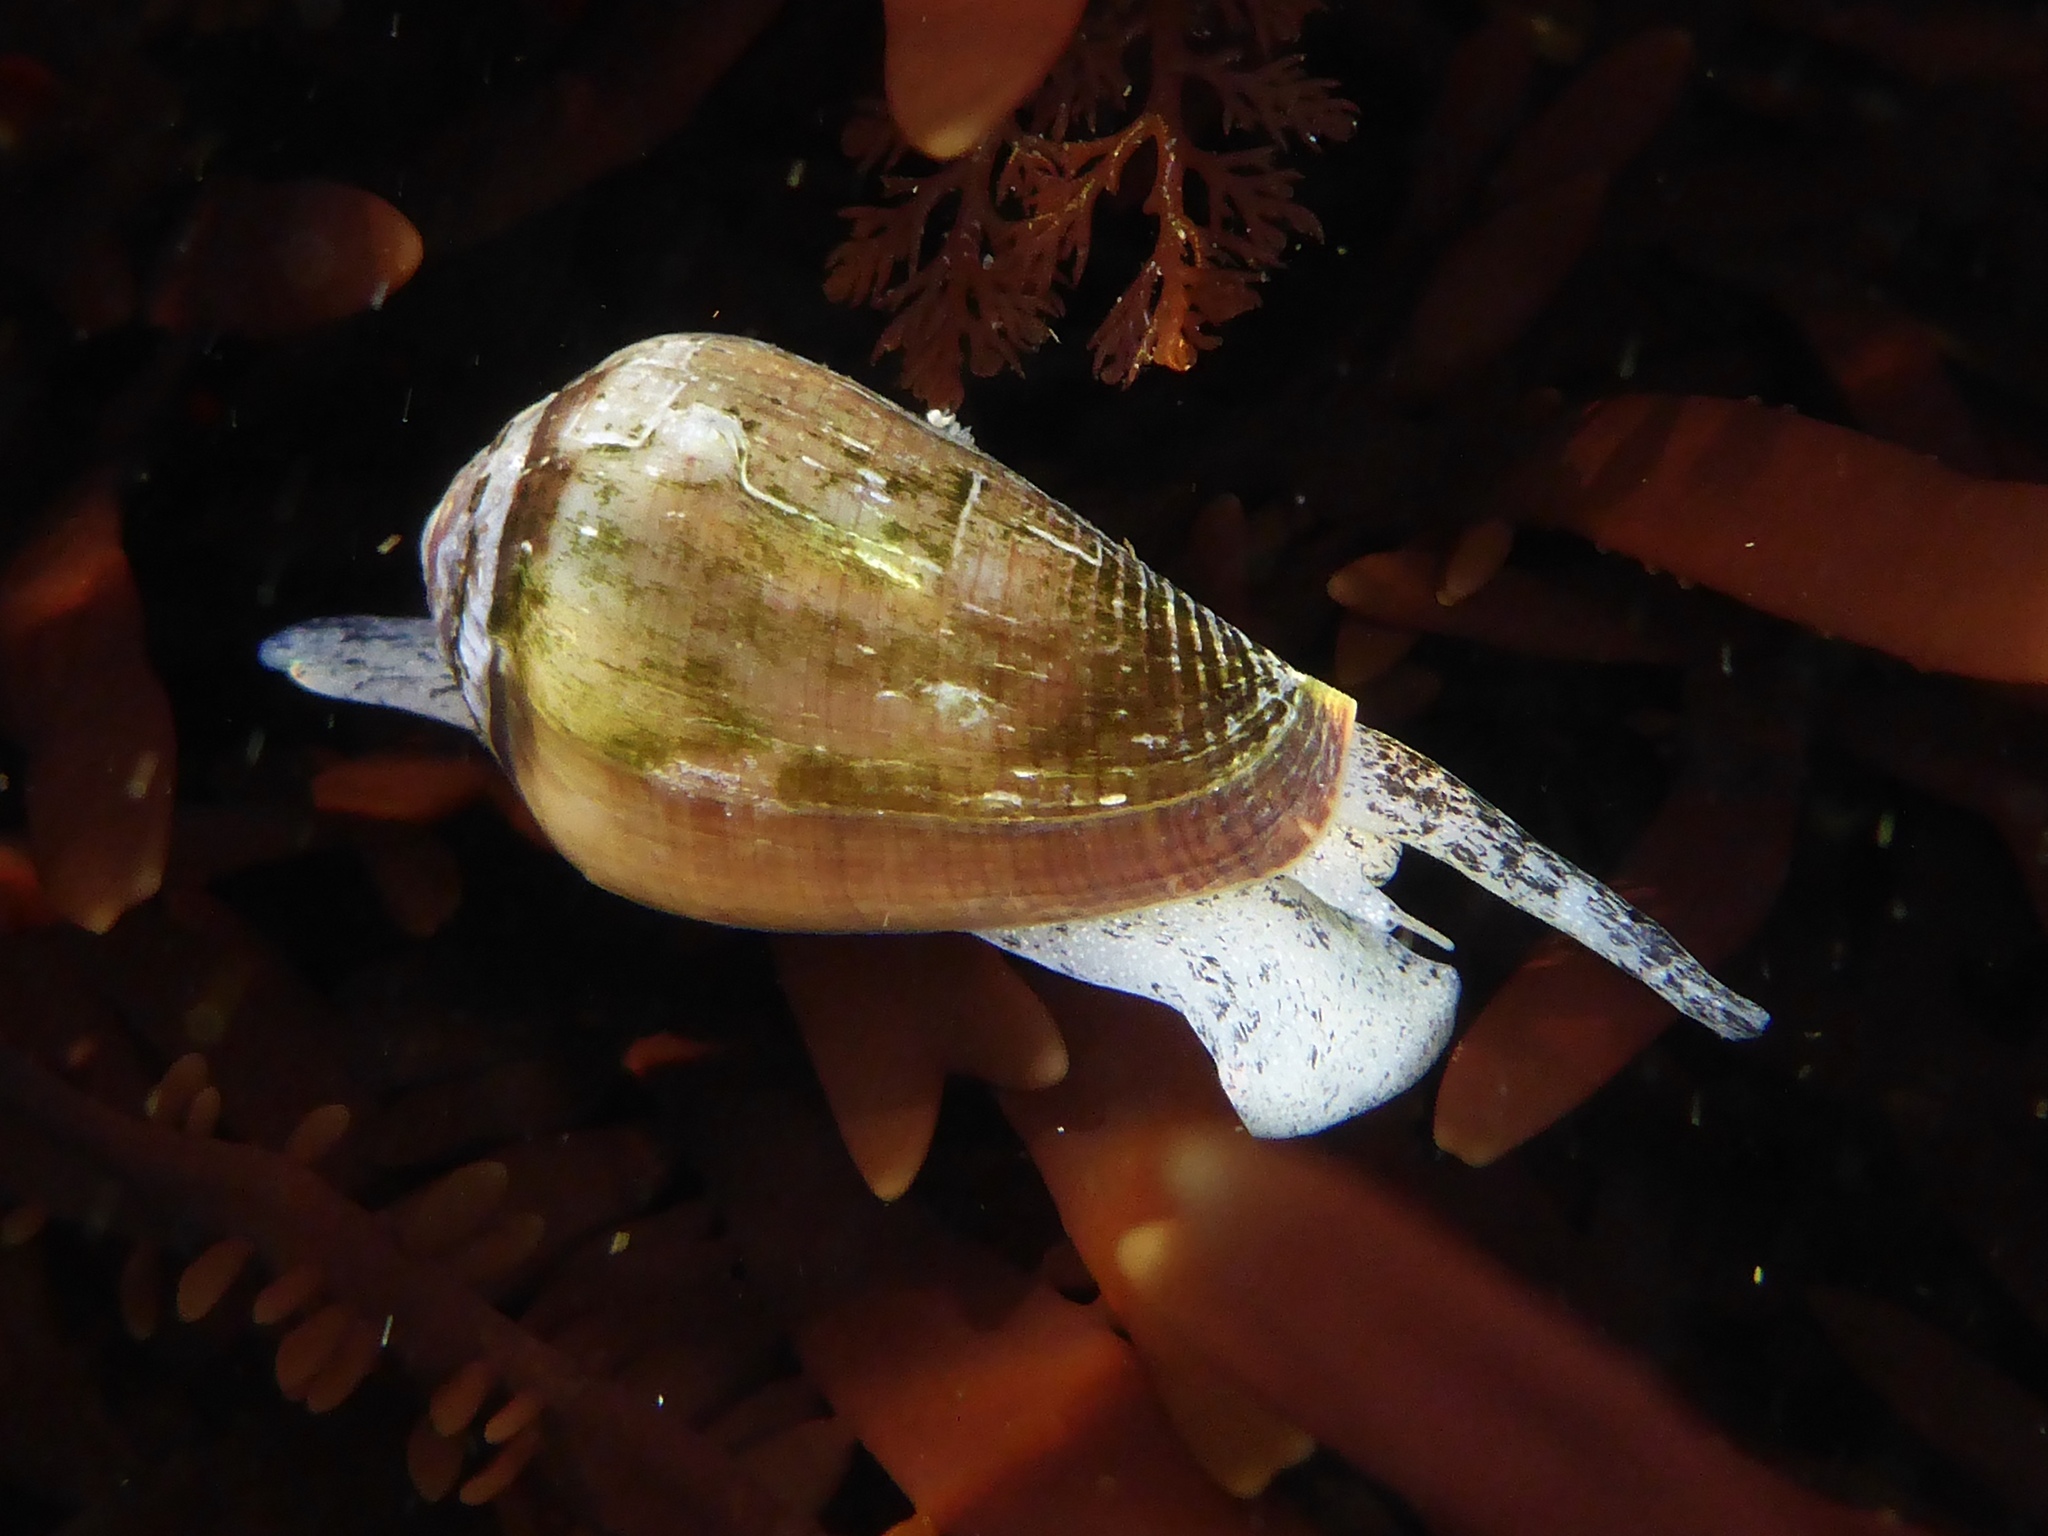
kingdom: Animalia
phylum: Mollusca
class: Gastropoda
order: Neogastropoda
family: Conidae
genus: Californiconus
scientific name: Californiconus californicus
